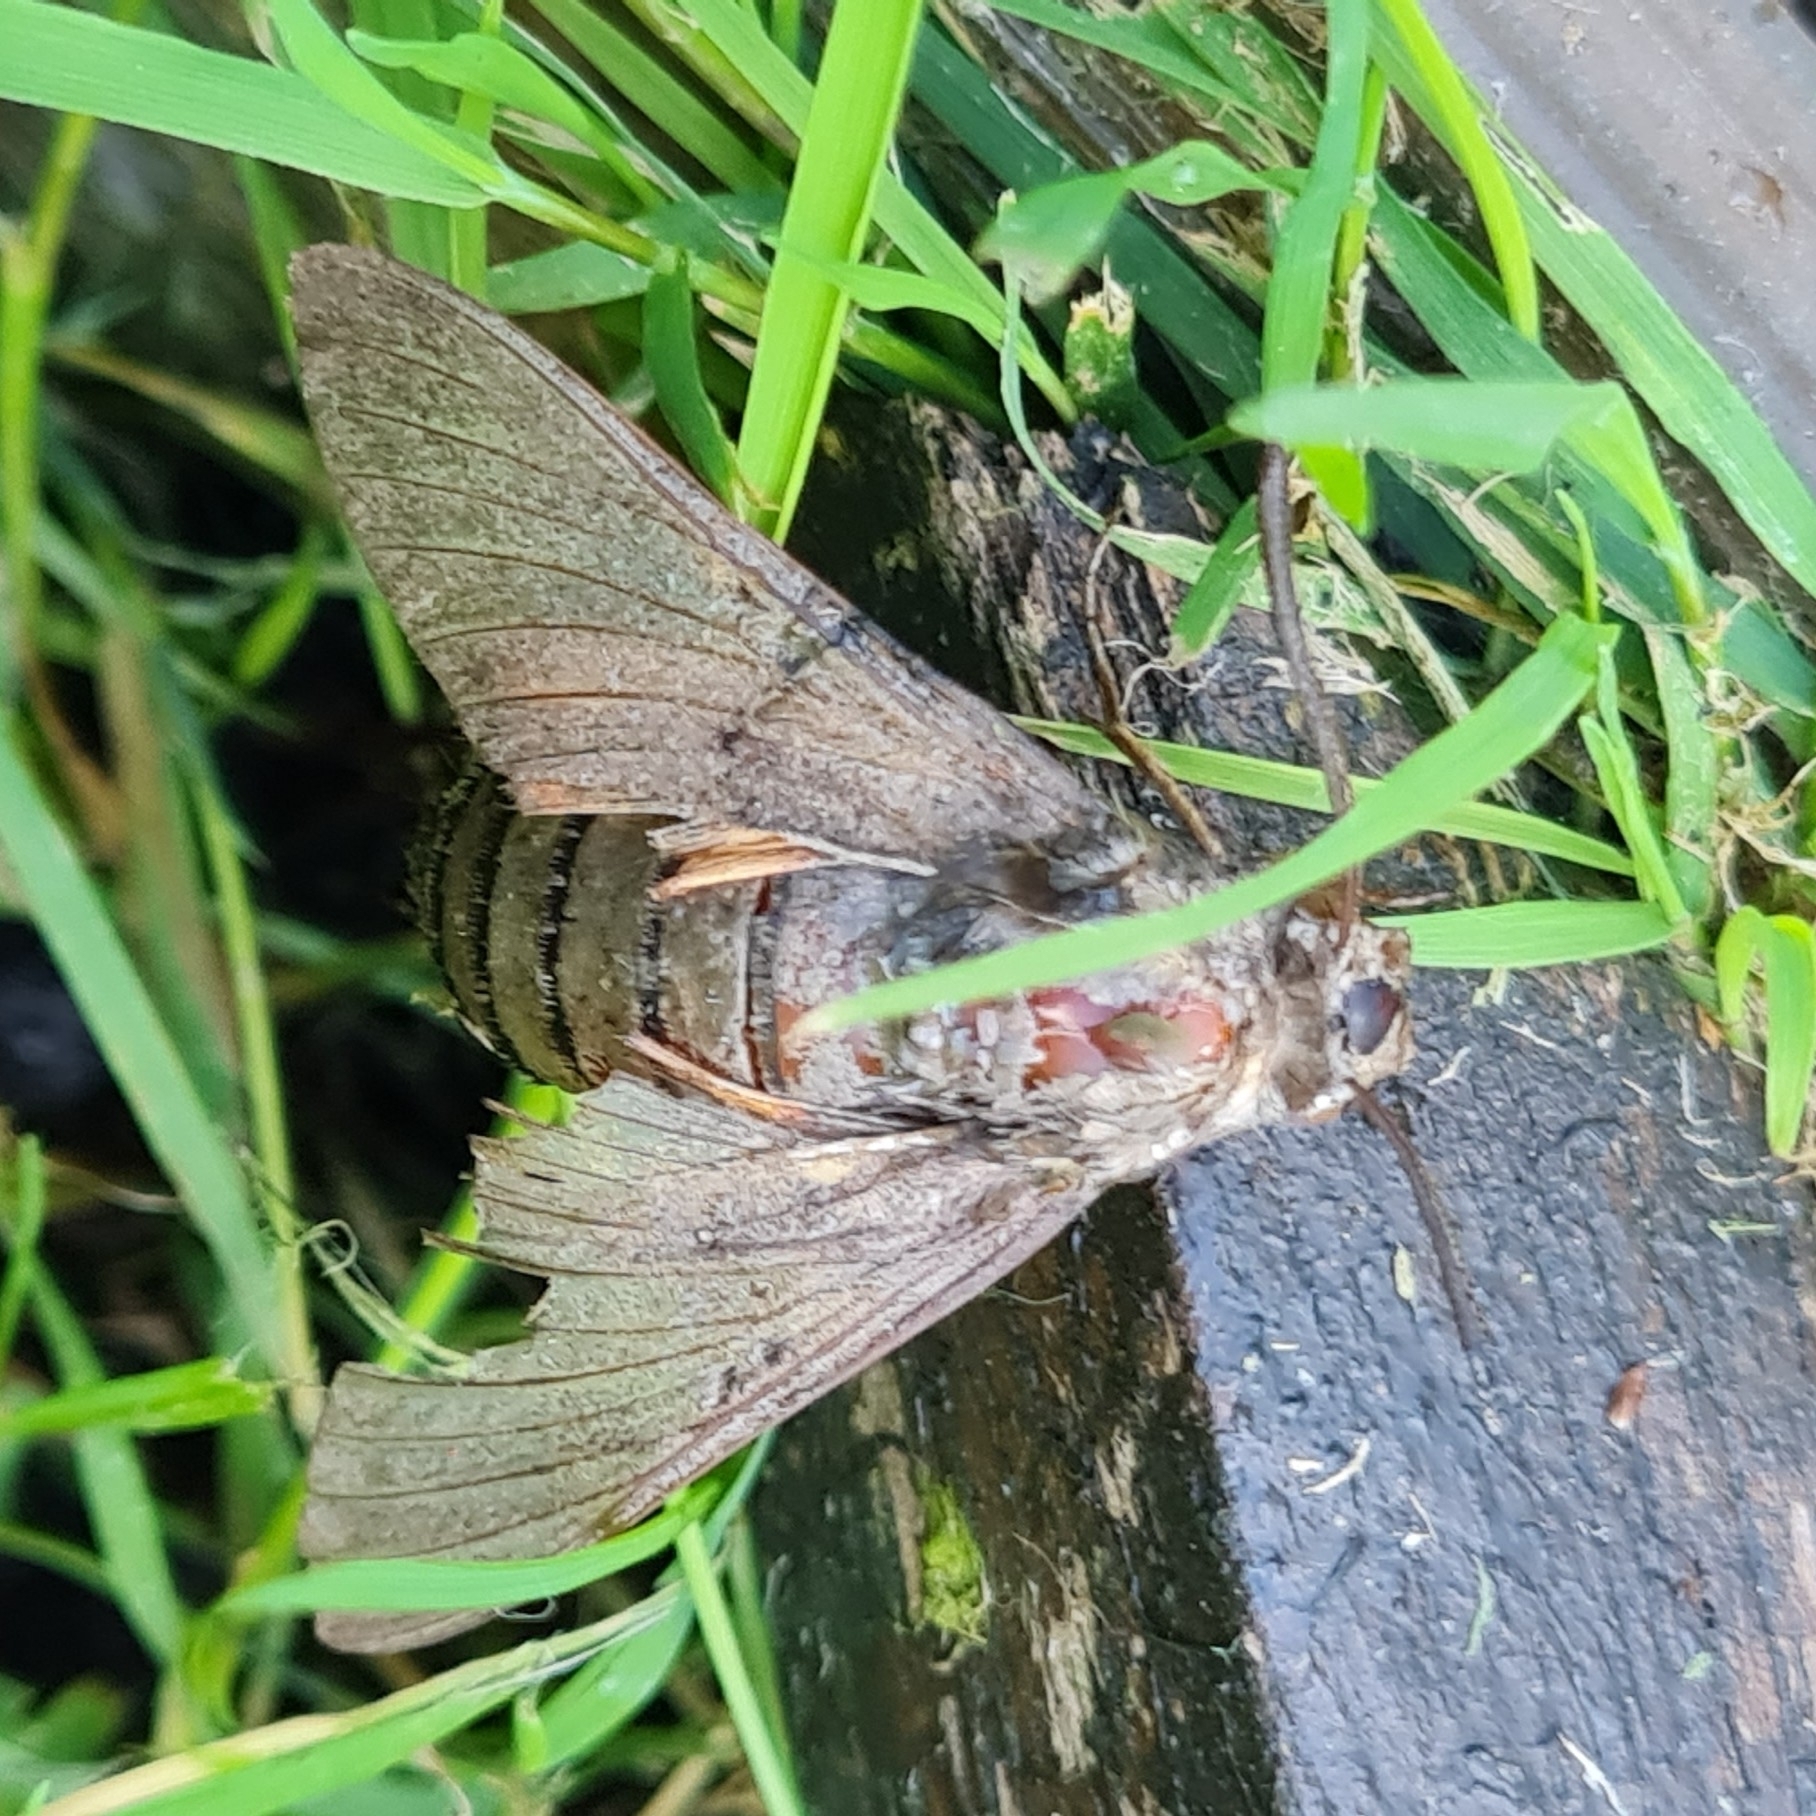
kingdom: Animalia
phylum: Arthropoda
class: Insecta
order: Lepidoptera
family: Sphingidae
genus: Macroglossum
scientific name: Macroglossum stellatarum
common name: Humming-bird hawk-moth
